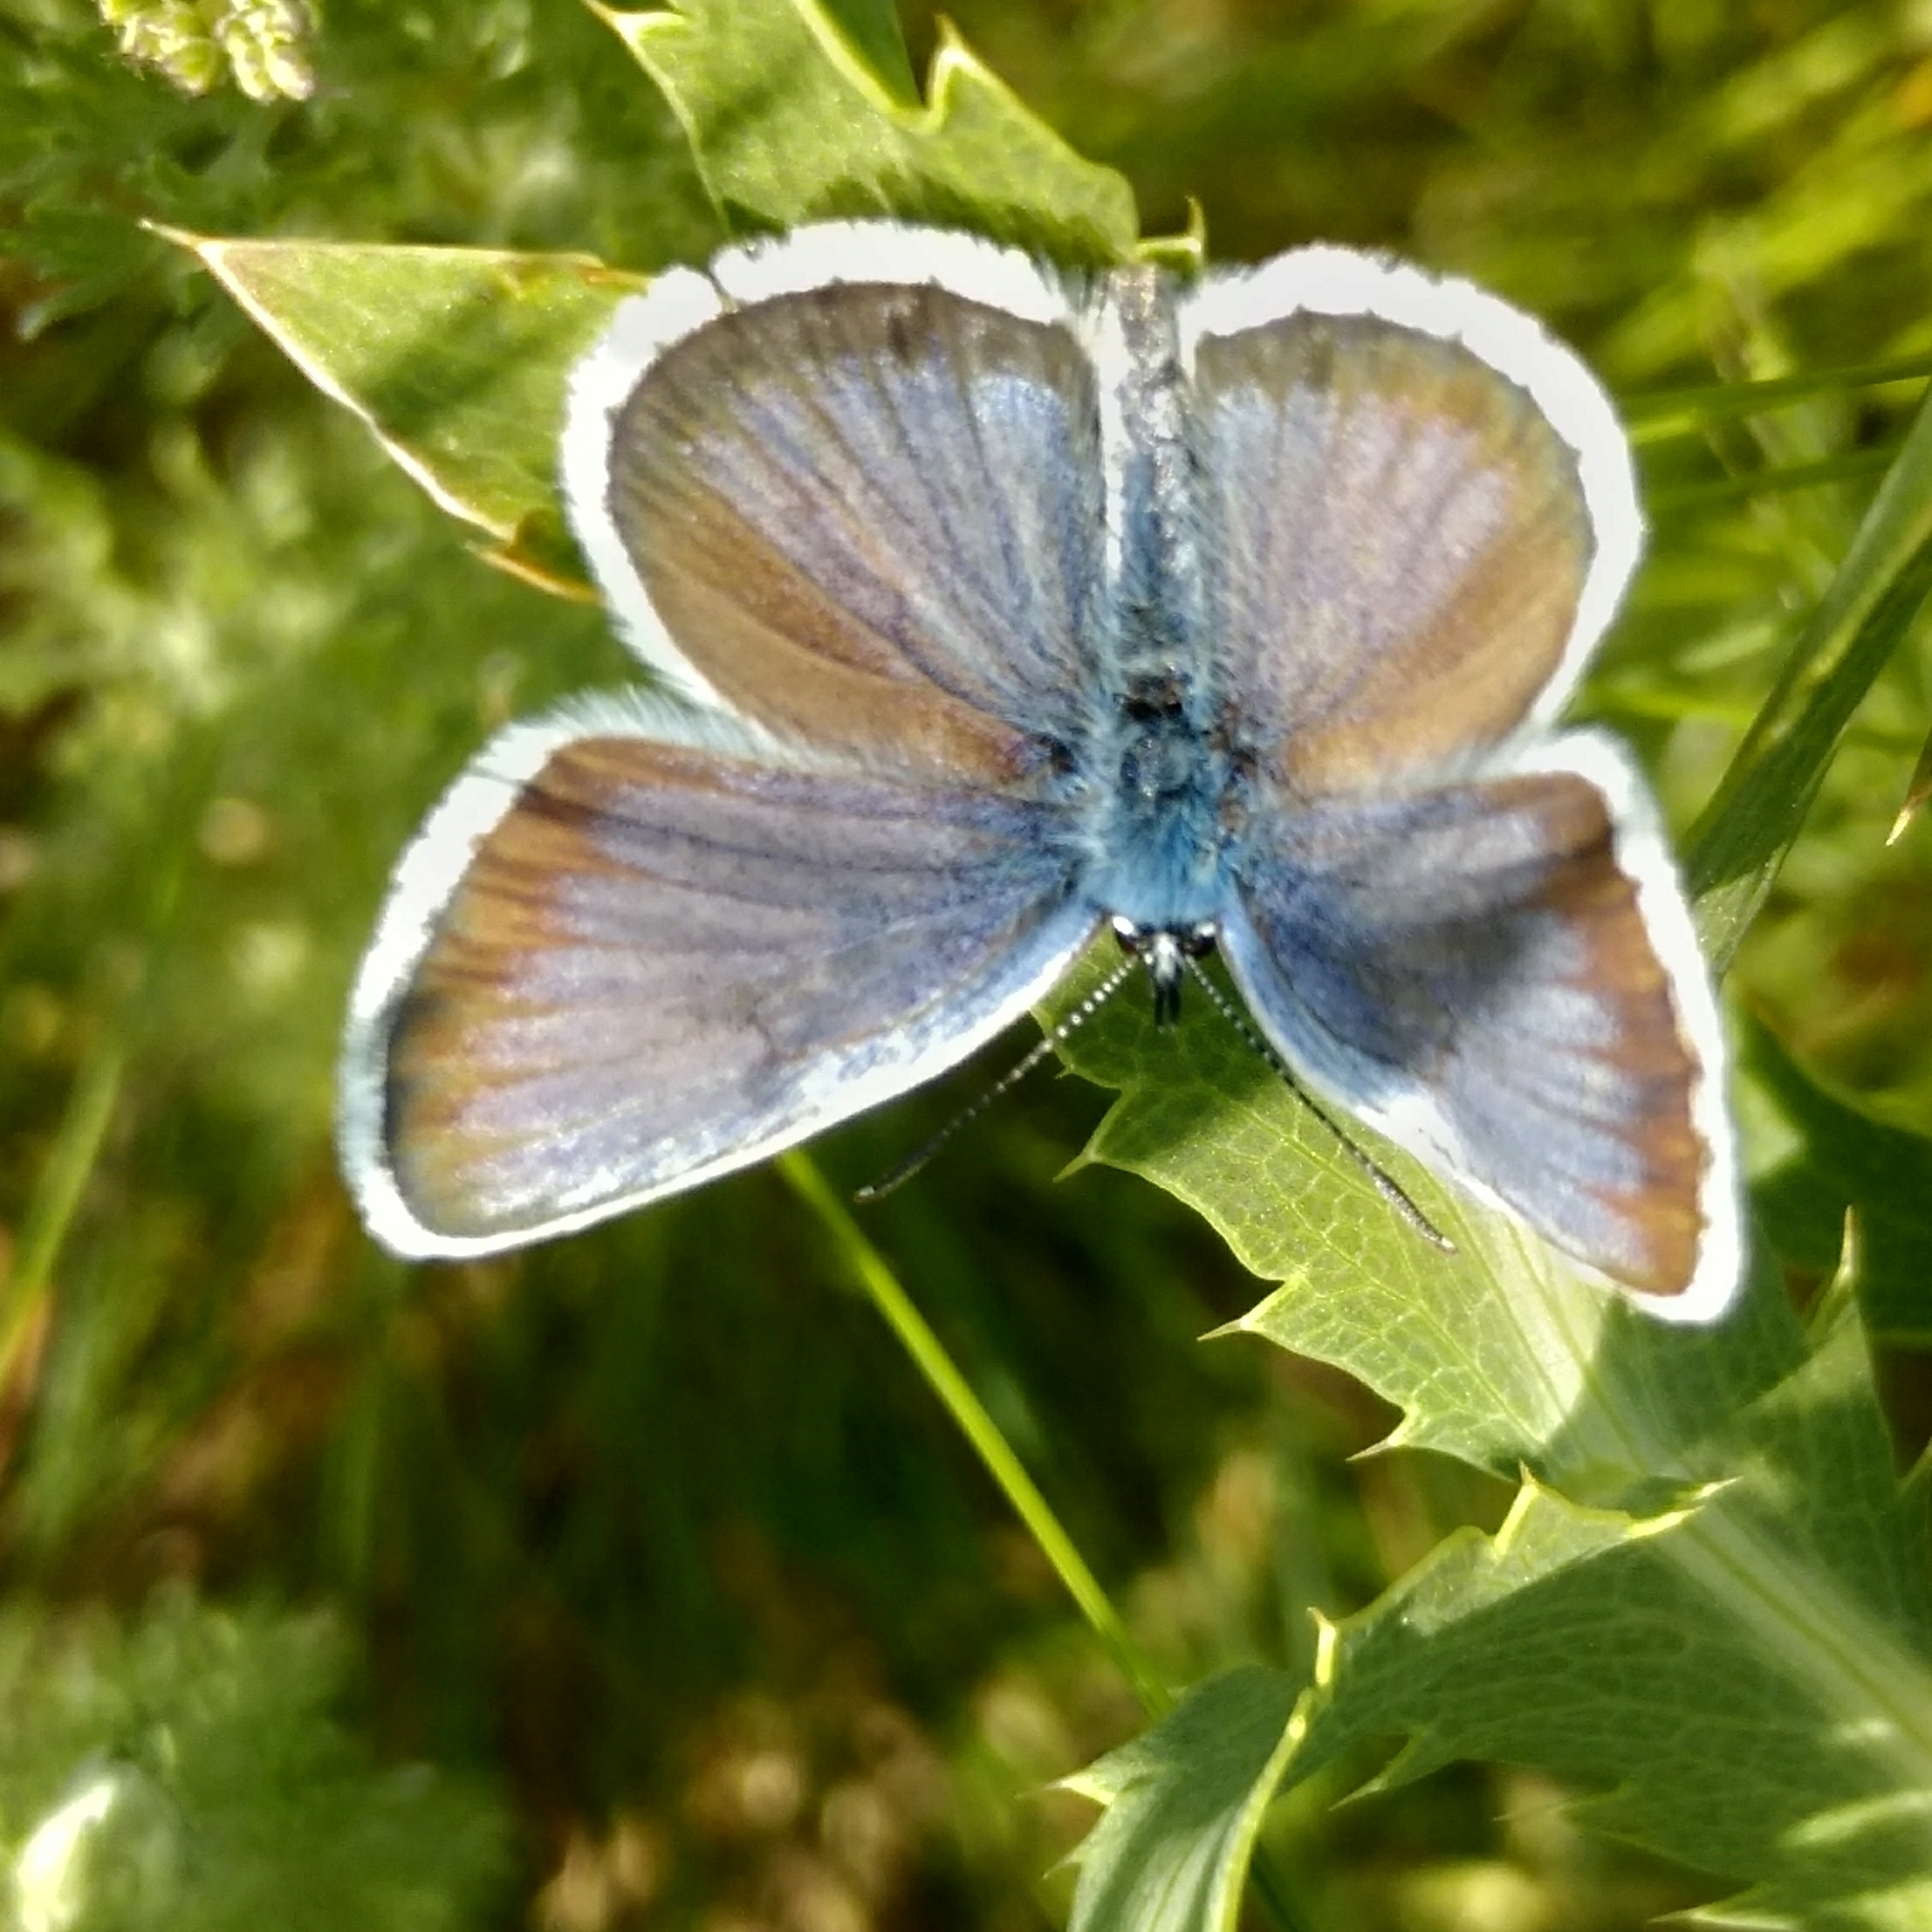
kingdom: Animalia
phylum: Arthropoda
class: Insecta
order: Lepidoptera
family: Lycaenidae
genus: Plebejus
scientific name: Plebejus argus
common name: Silver-studded blue
